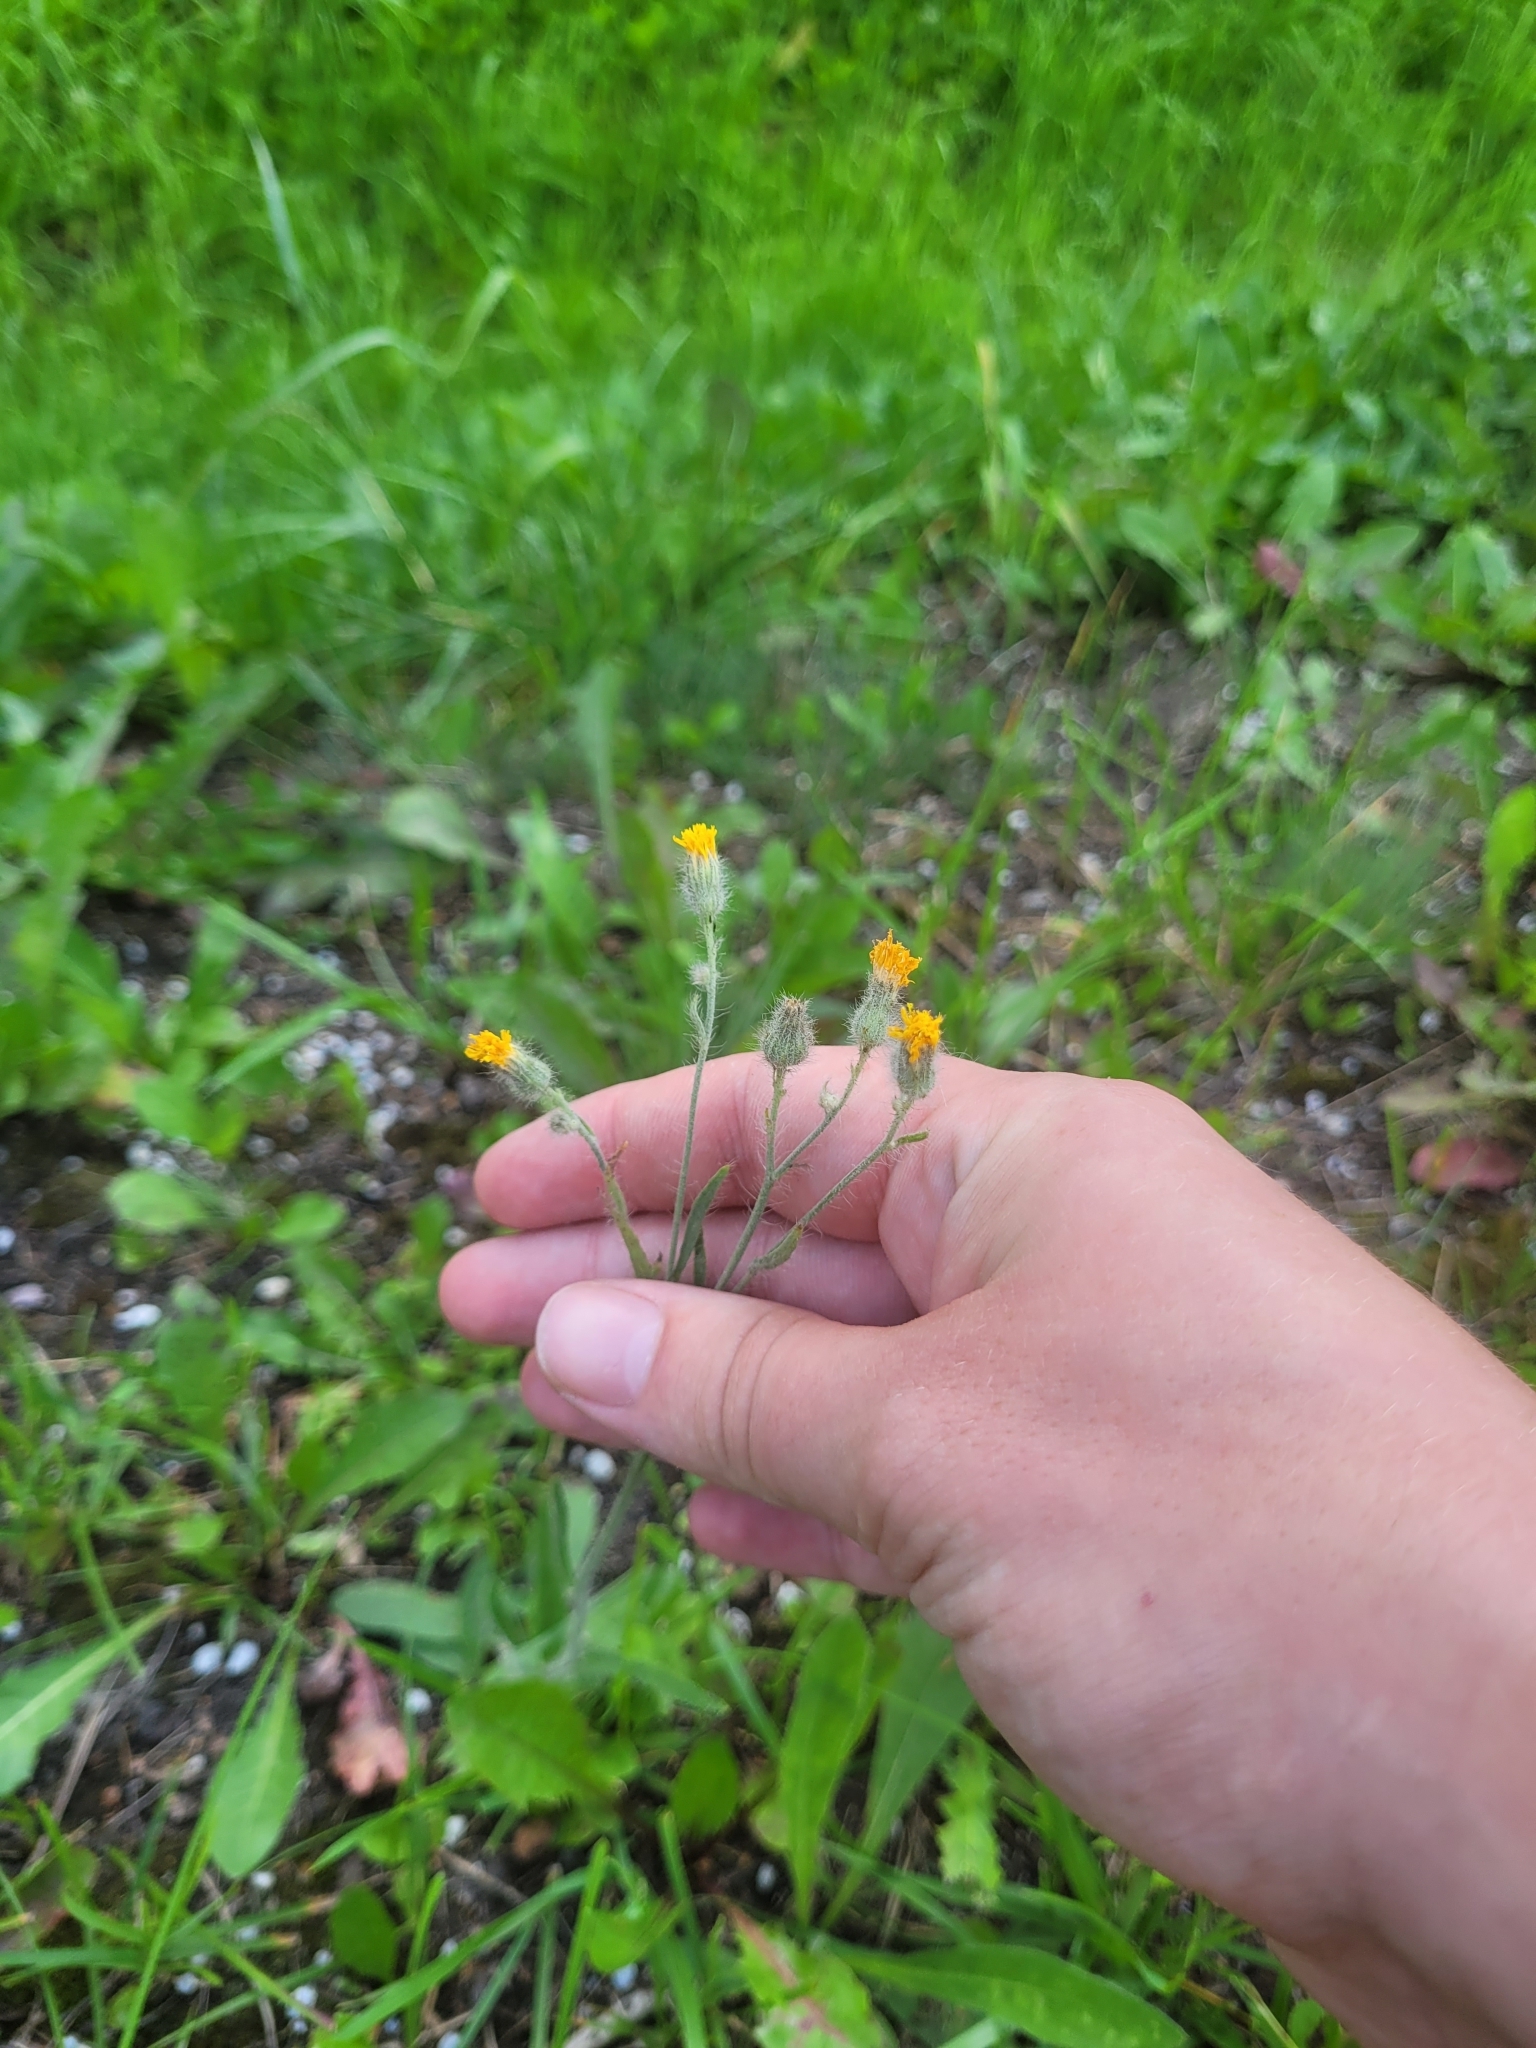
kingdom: Plantae
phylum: Tracheophyta
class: Magnoliopsida
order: Asterales
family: Asteraceae
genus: Pilosella
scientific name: Pilosella echioides
